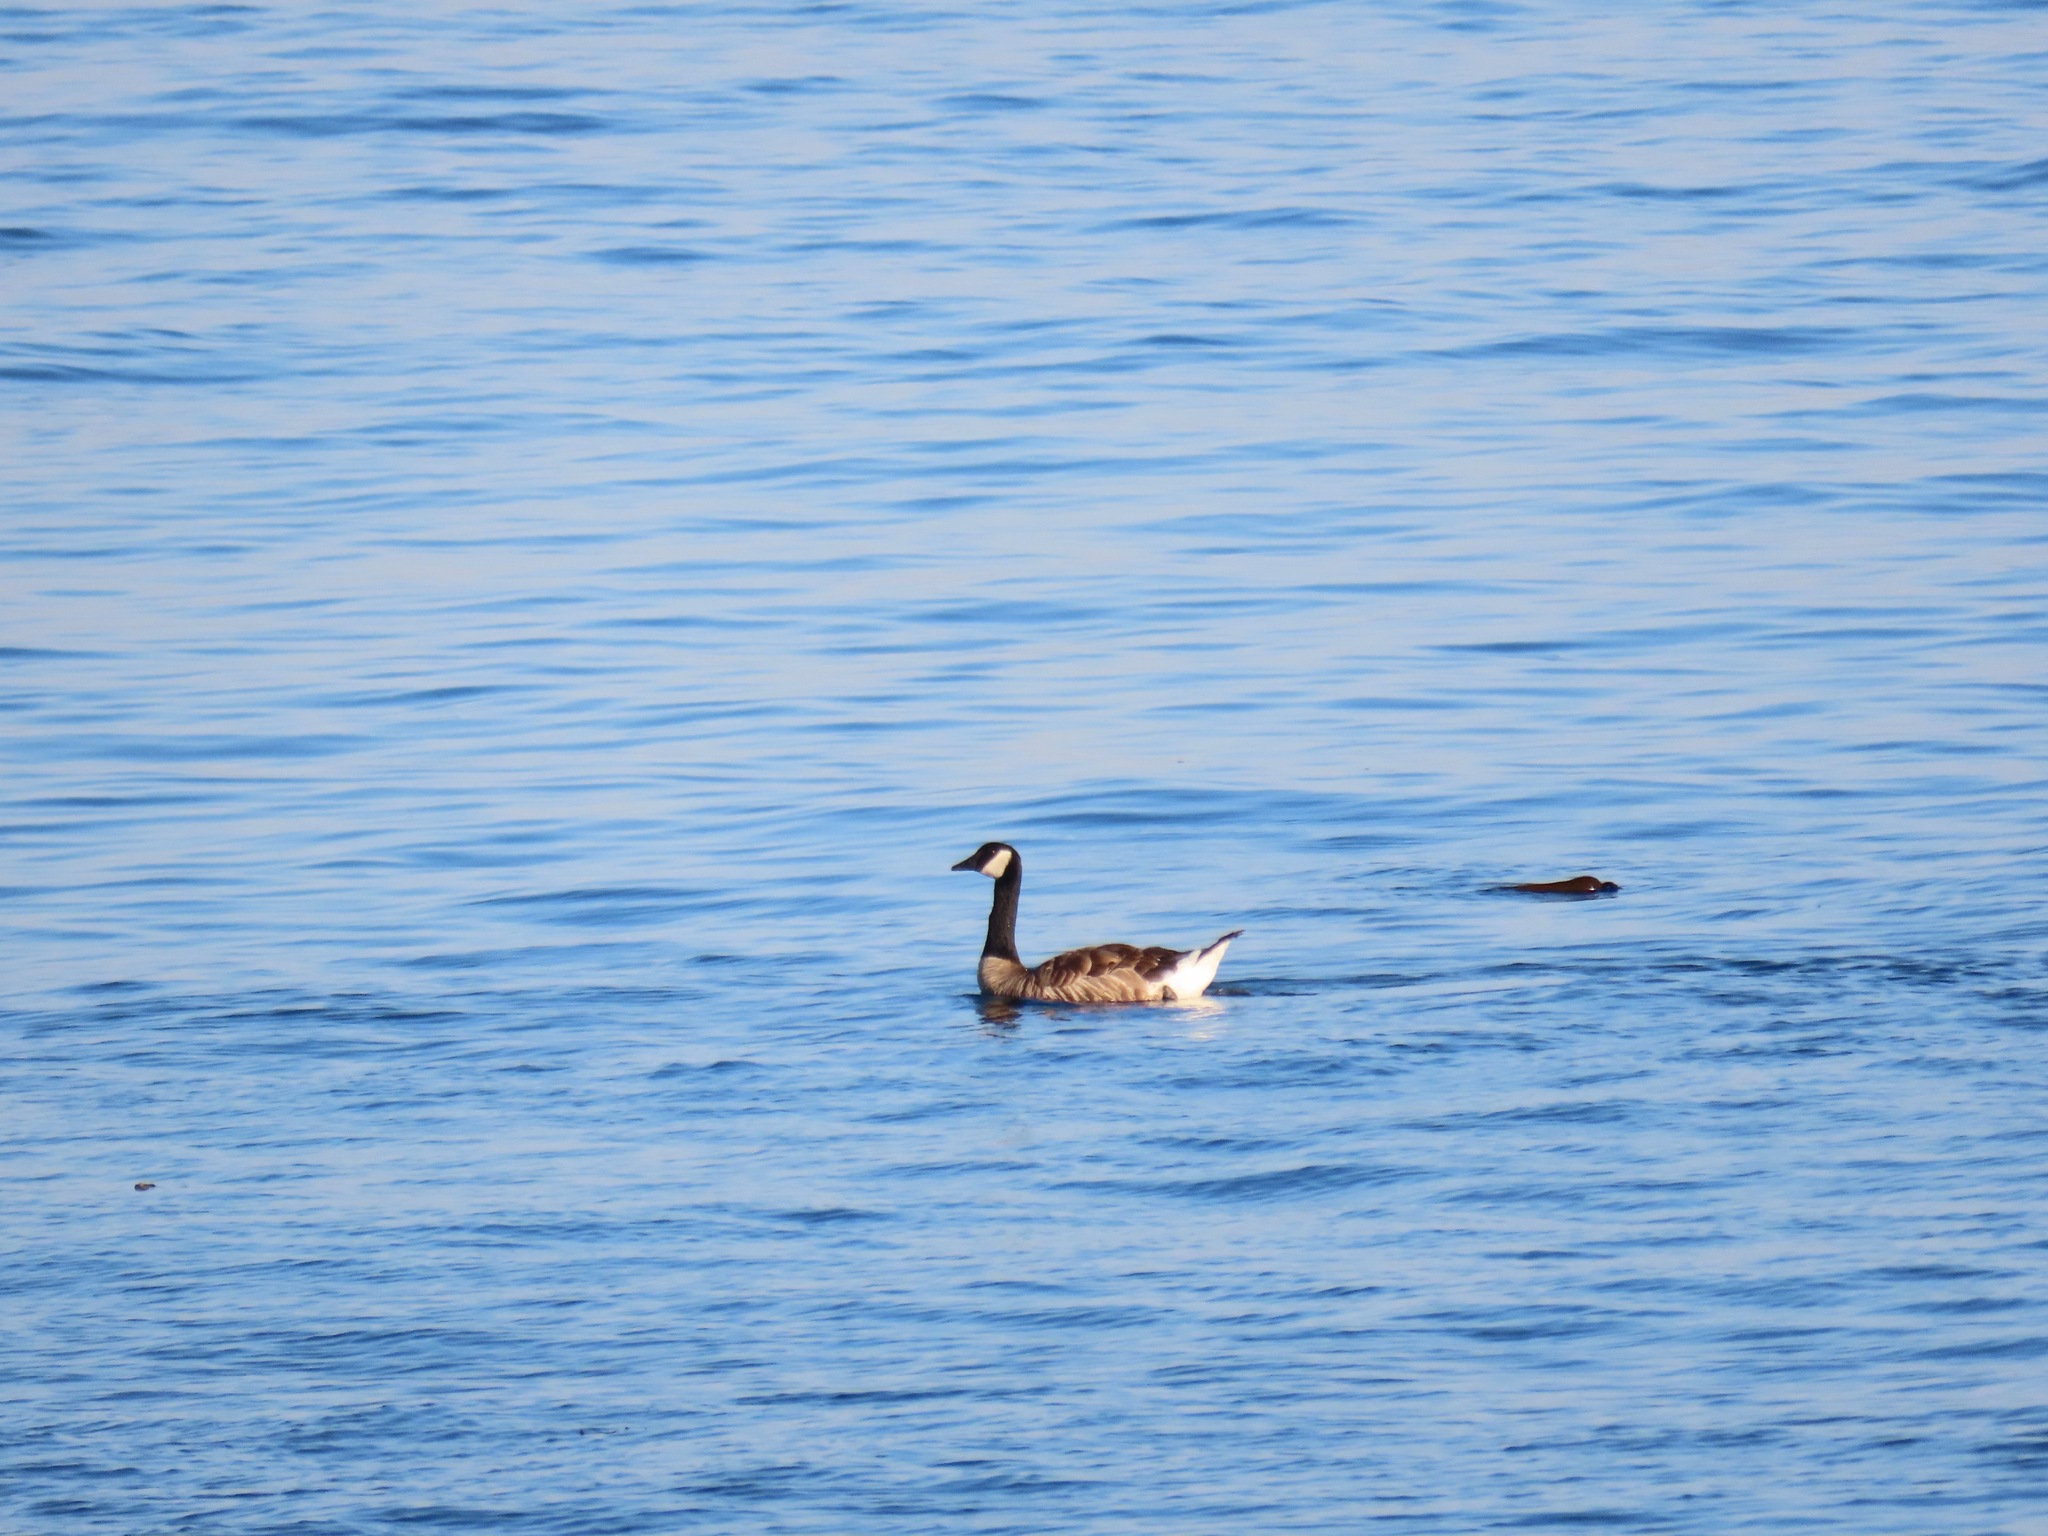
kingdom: Animalia
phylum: Chordata
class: Aves
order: Anseriformes
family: Anatidae
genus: Branta
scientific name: Branta canadensis
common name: Canada goose
